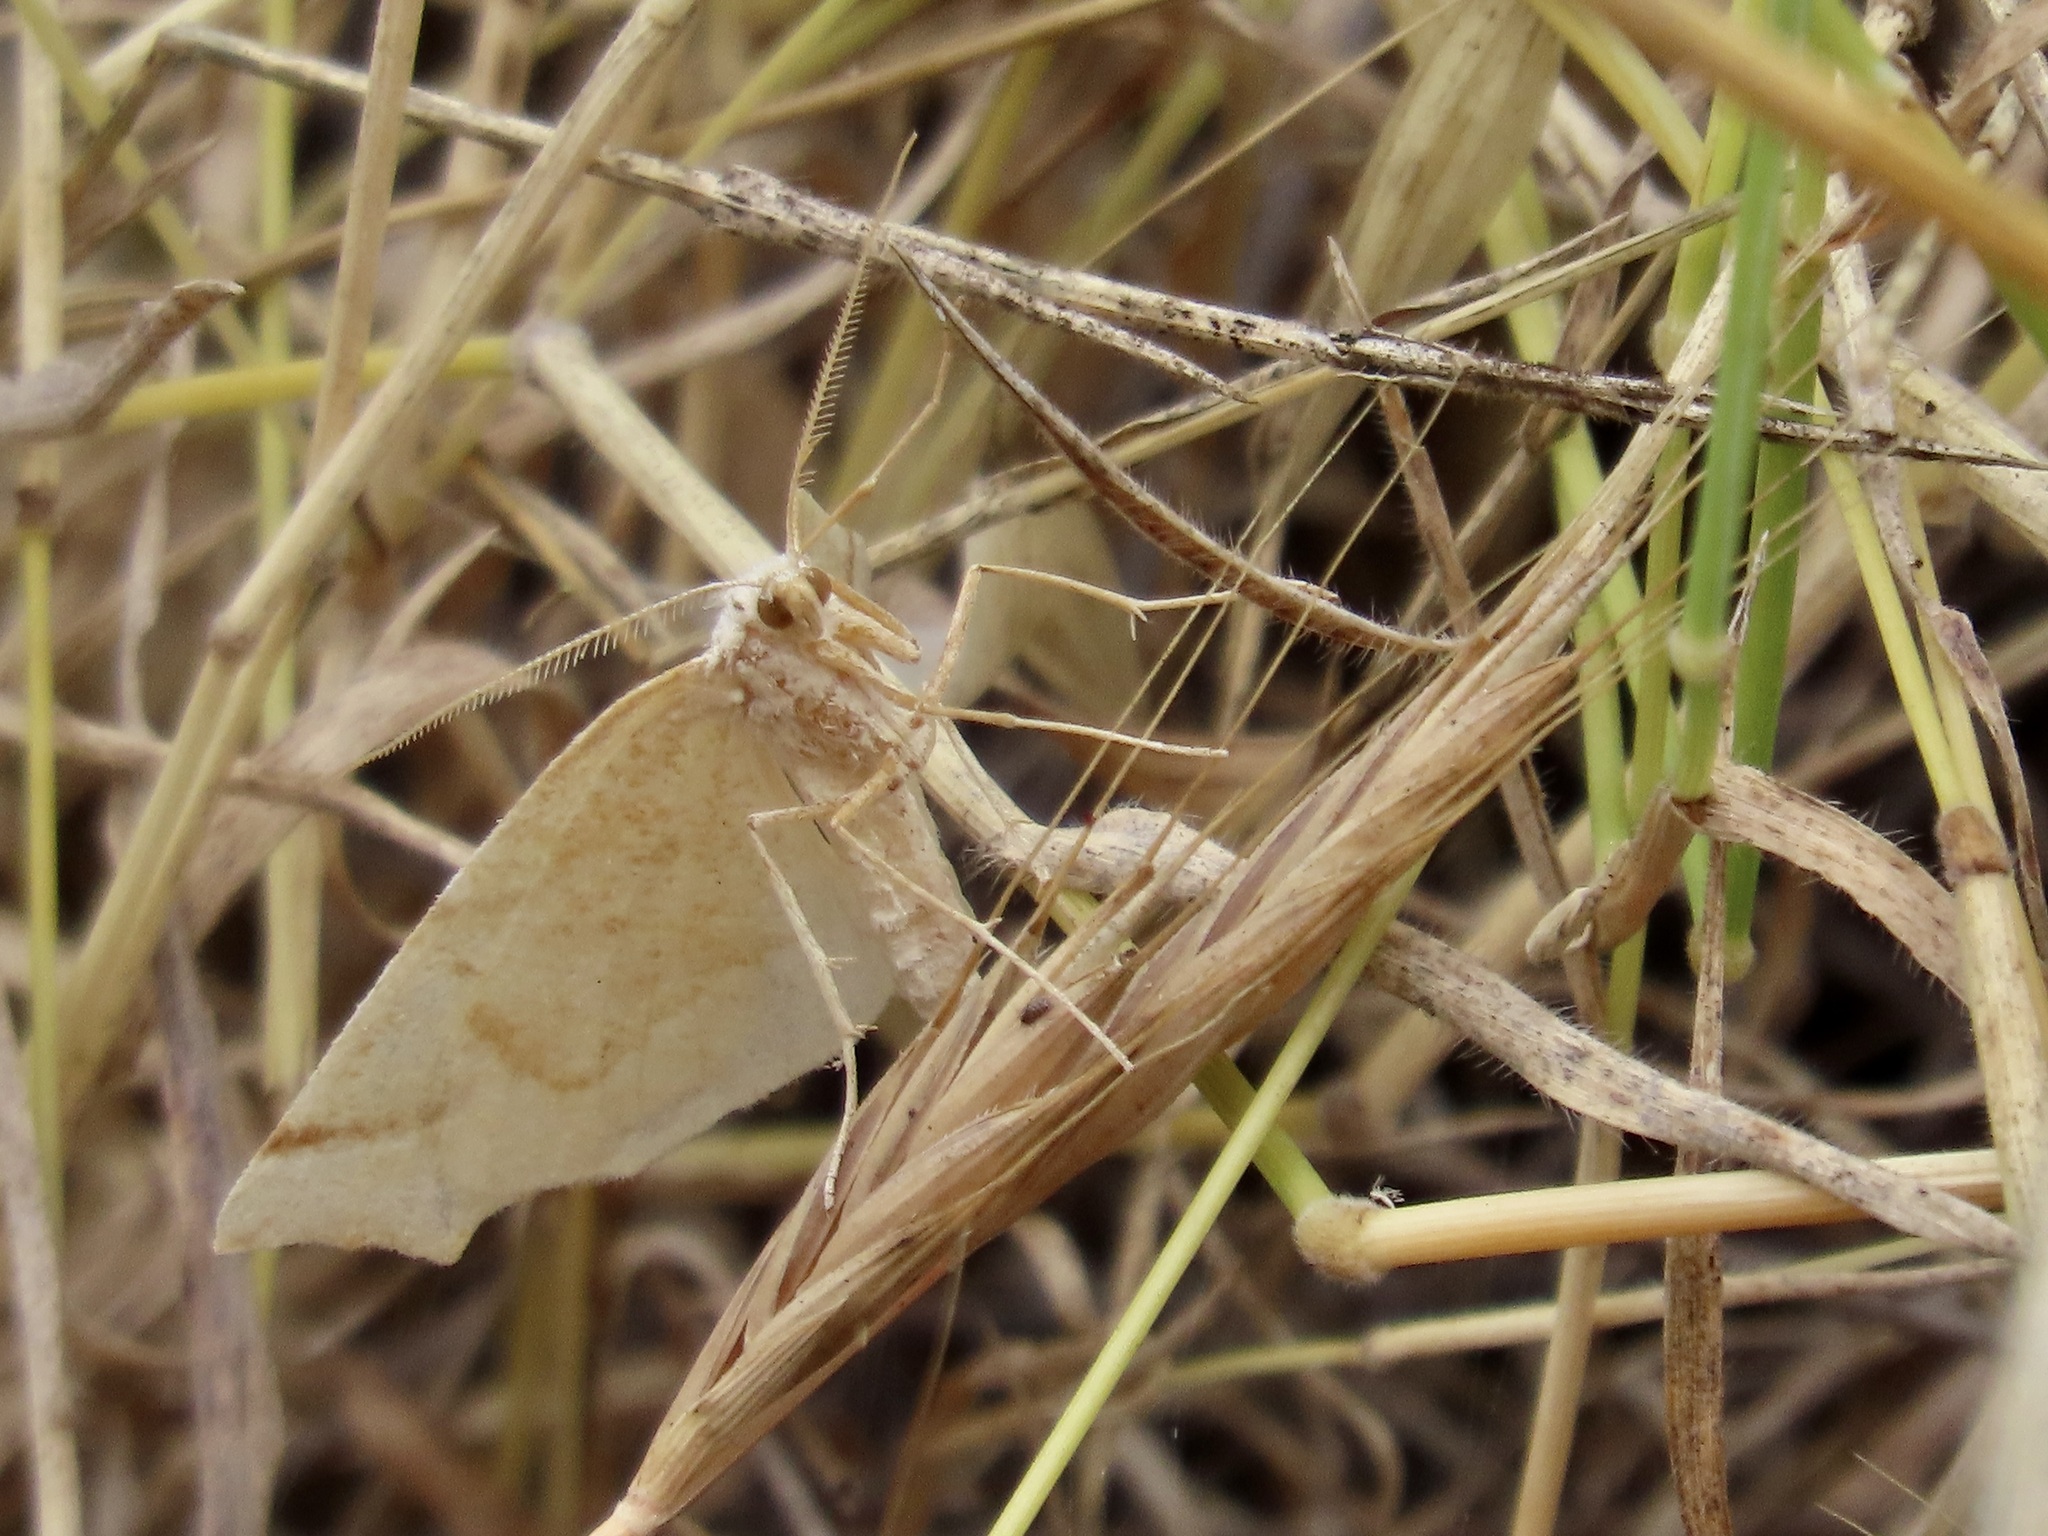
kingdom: Animalia
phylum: Arthropoda
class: Insecta
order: Lepidoptera
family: Geometridae
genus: Pherne
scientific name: Pherne subpunctata
